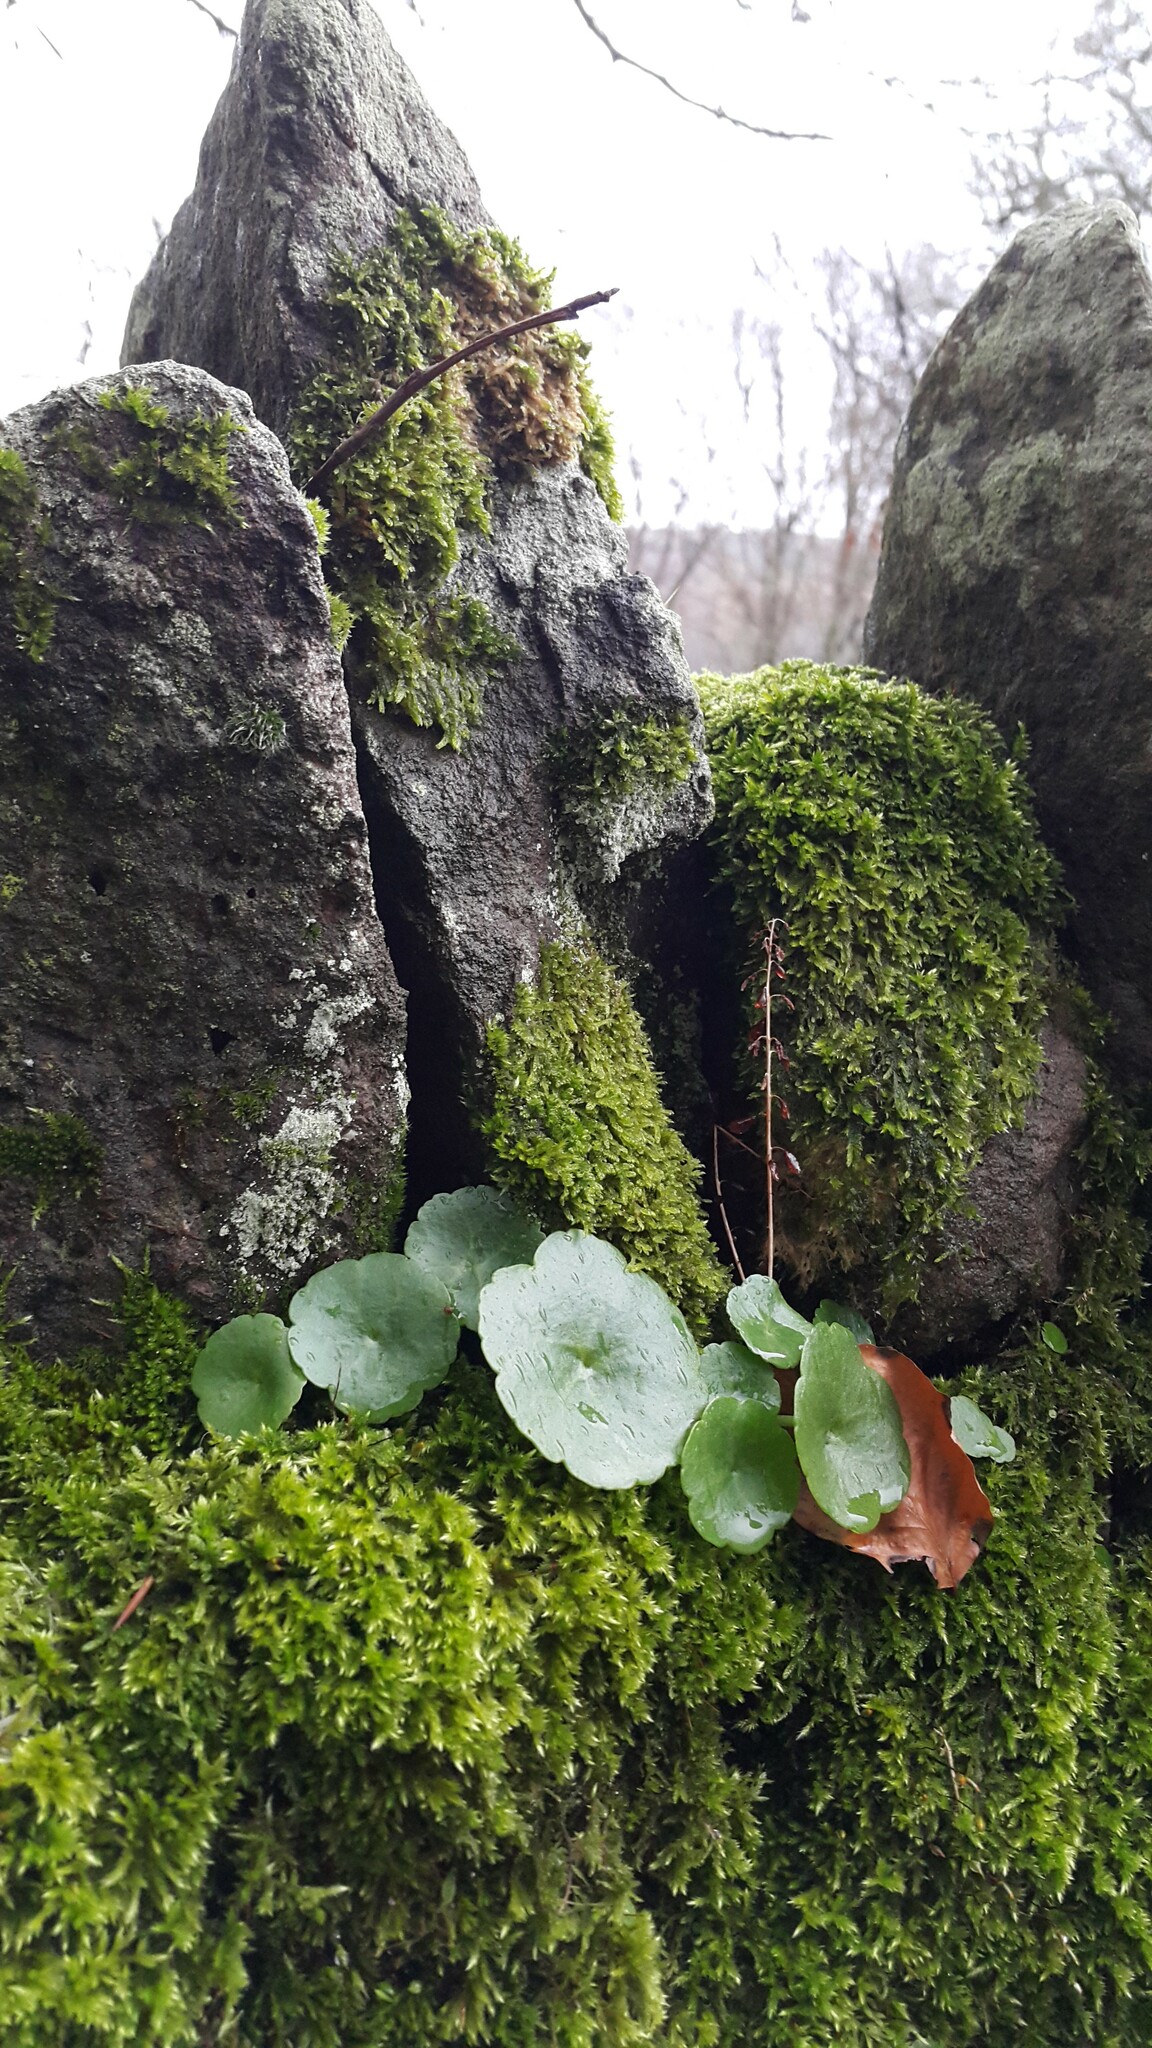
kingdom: Plantae
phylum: Tracheophyta
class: Magnoliopsida
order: Saxifragales
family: Crassulaceae
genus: Umbilicus
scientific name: Umbilicus rupestris
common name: Navelwort
